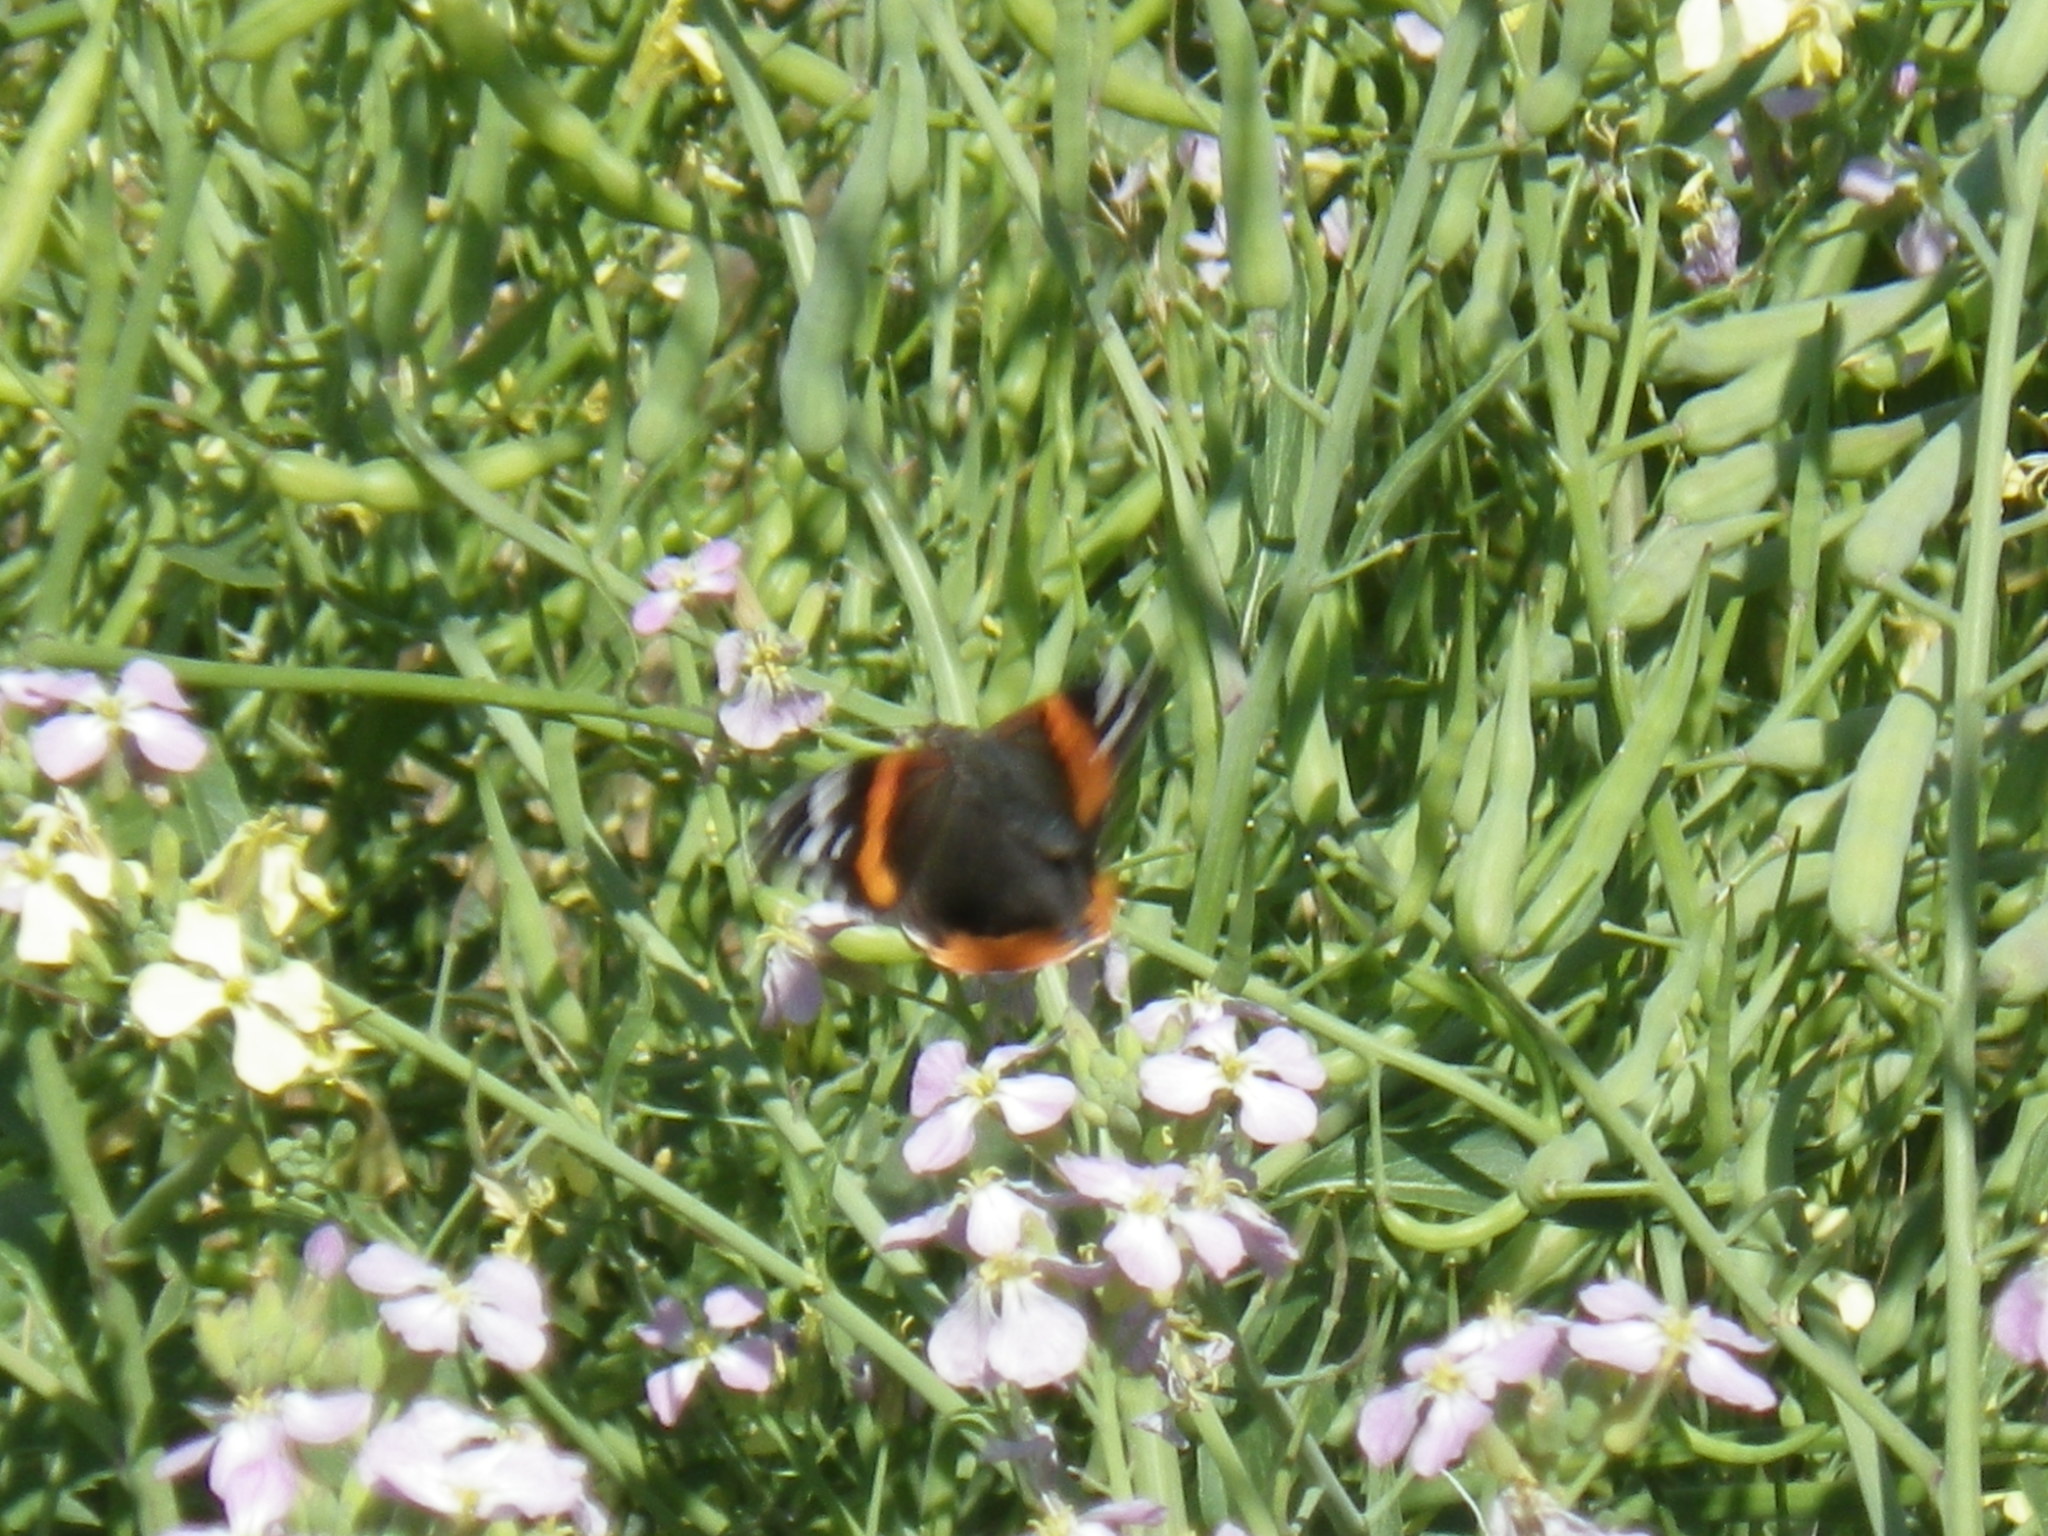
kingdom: Animalia
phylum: Arthropoda
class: Insecta
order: Lepidoptera
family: Nymphalidae
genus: Vanessa
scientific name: Vanessa atalanta
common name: Red admiral
